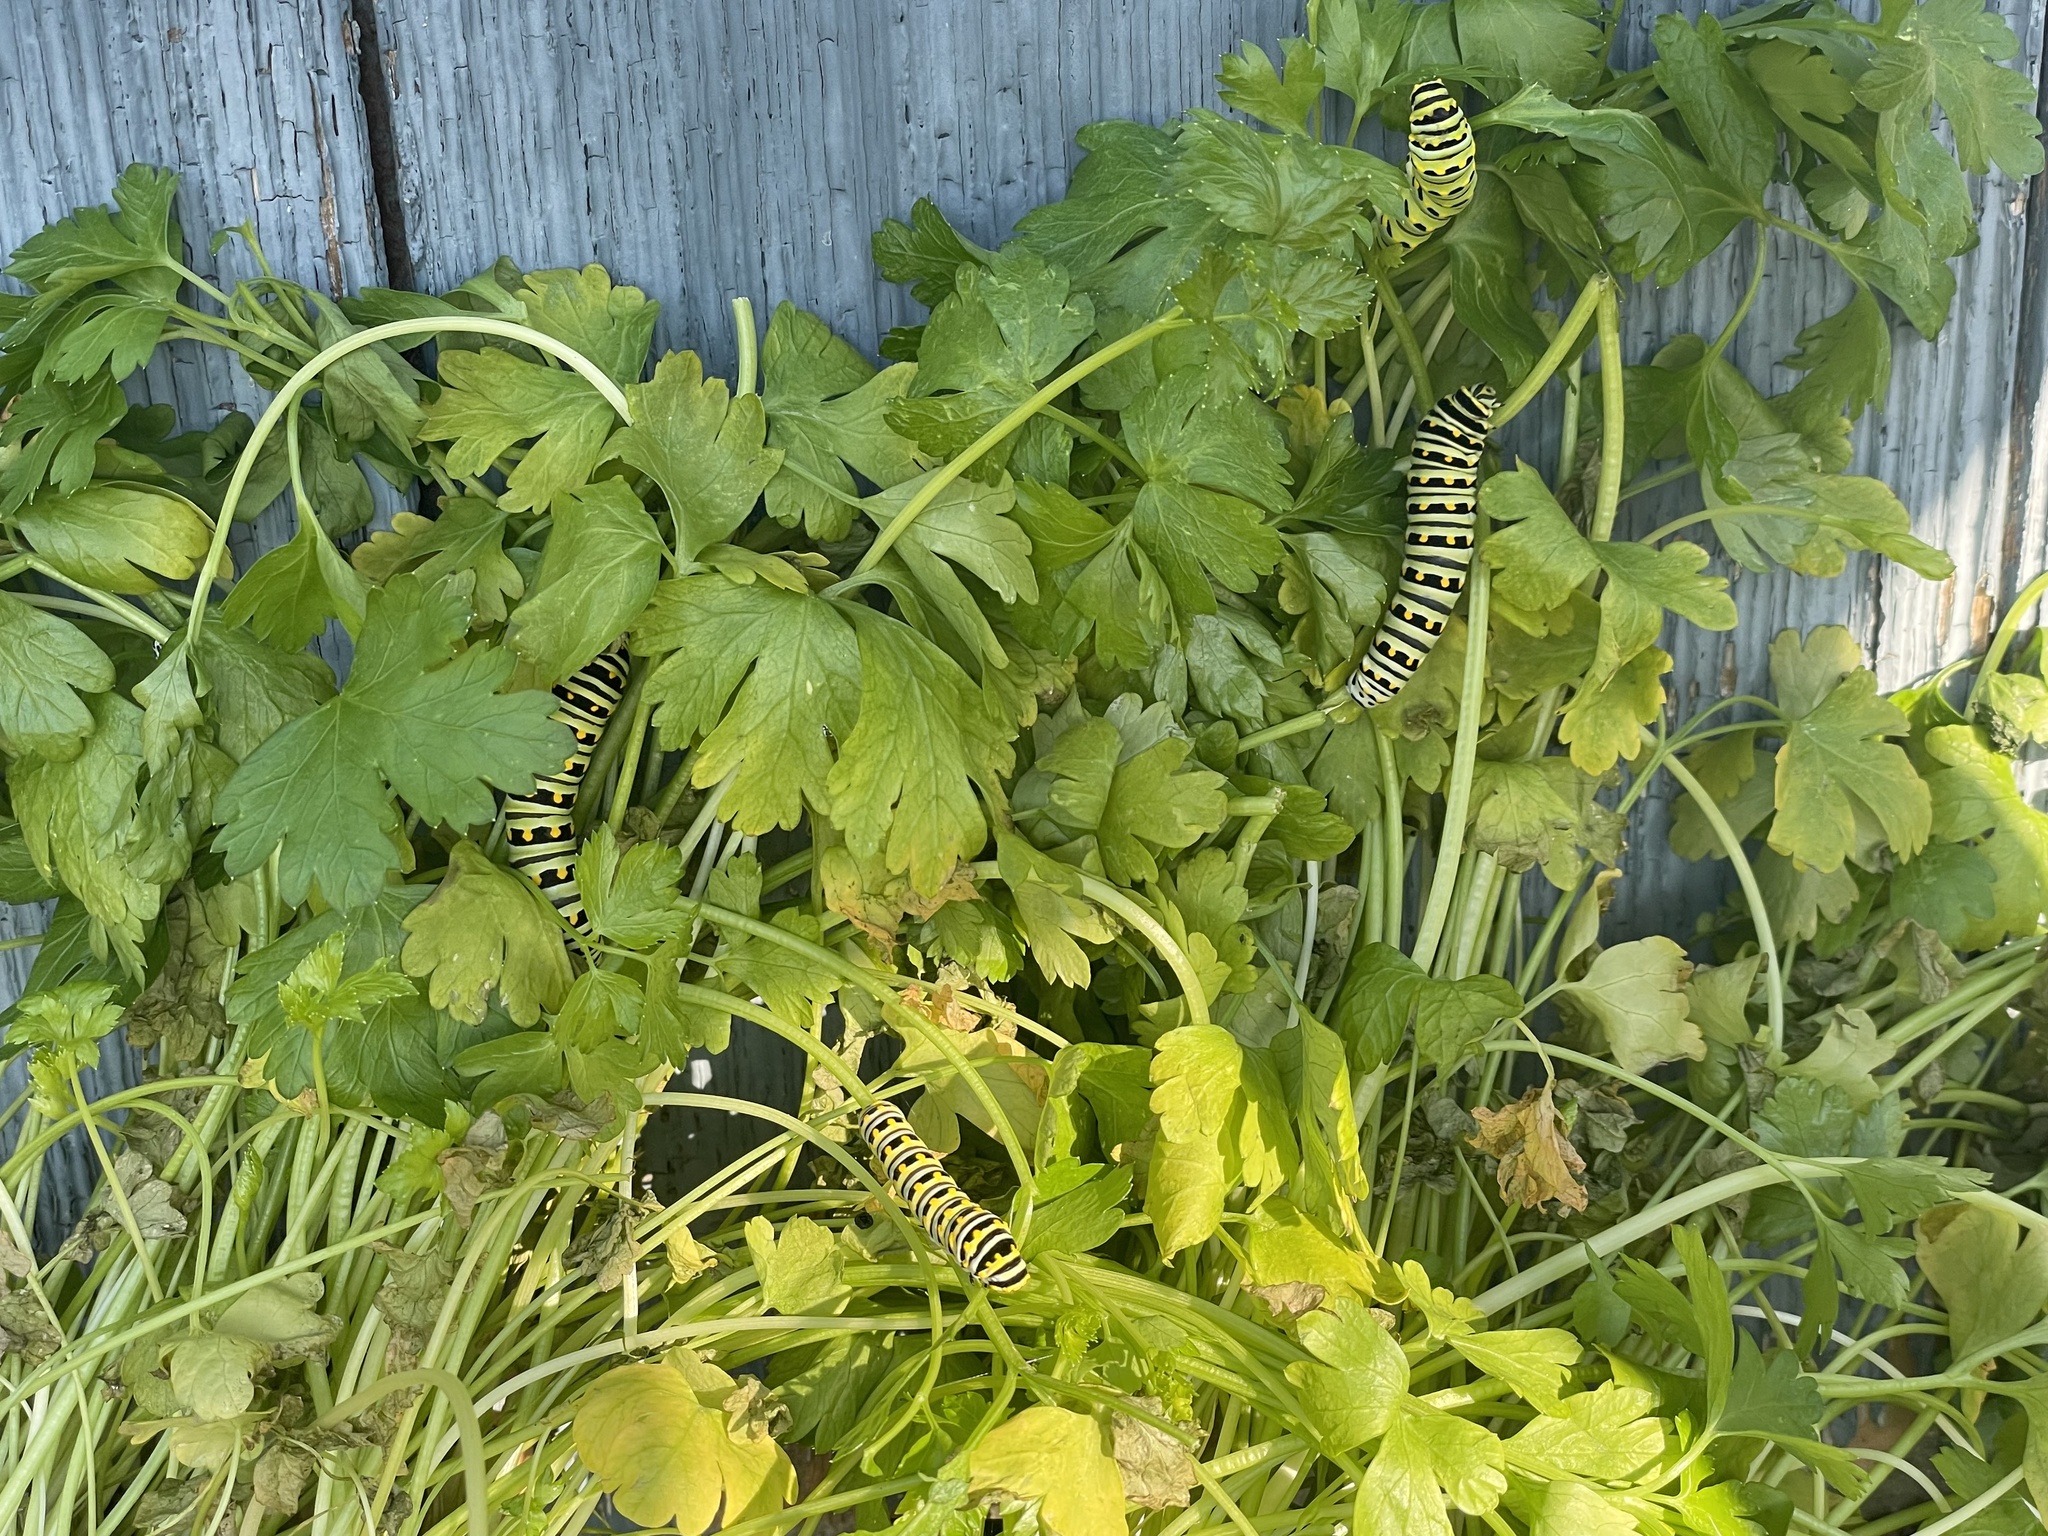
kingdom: Animalia
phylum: Arthropoda
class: Insecta
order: Lepidoptera
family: Papilionidae
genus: Papilio
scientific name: Papilio polyxenes
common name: Black swallowtail
